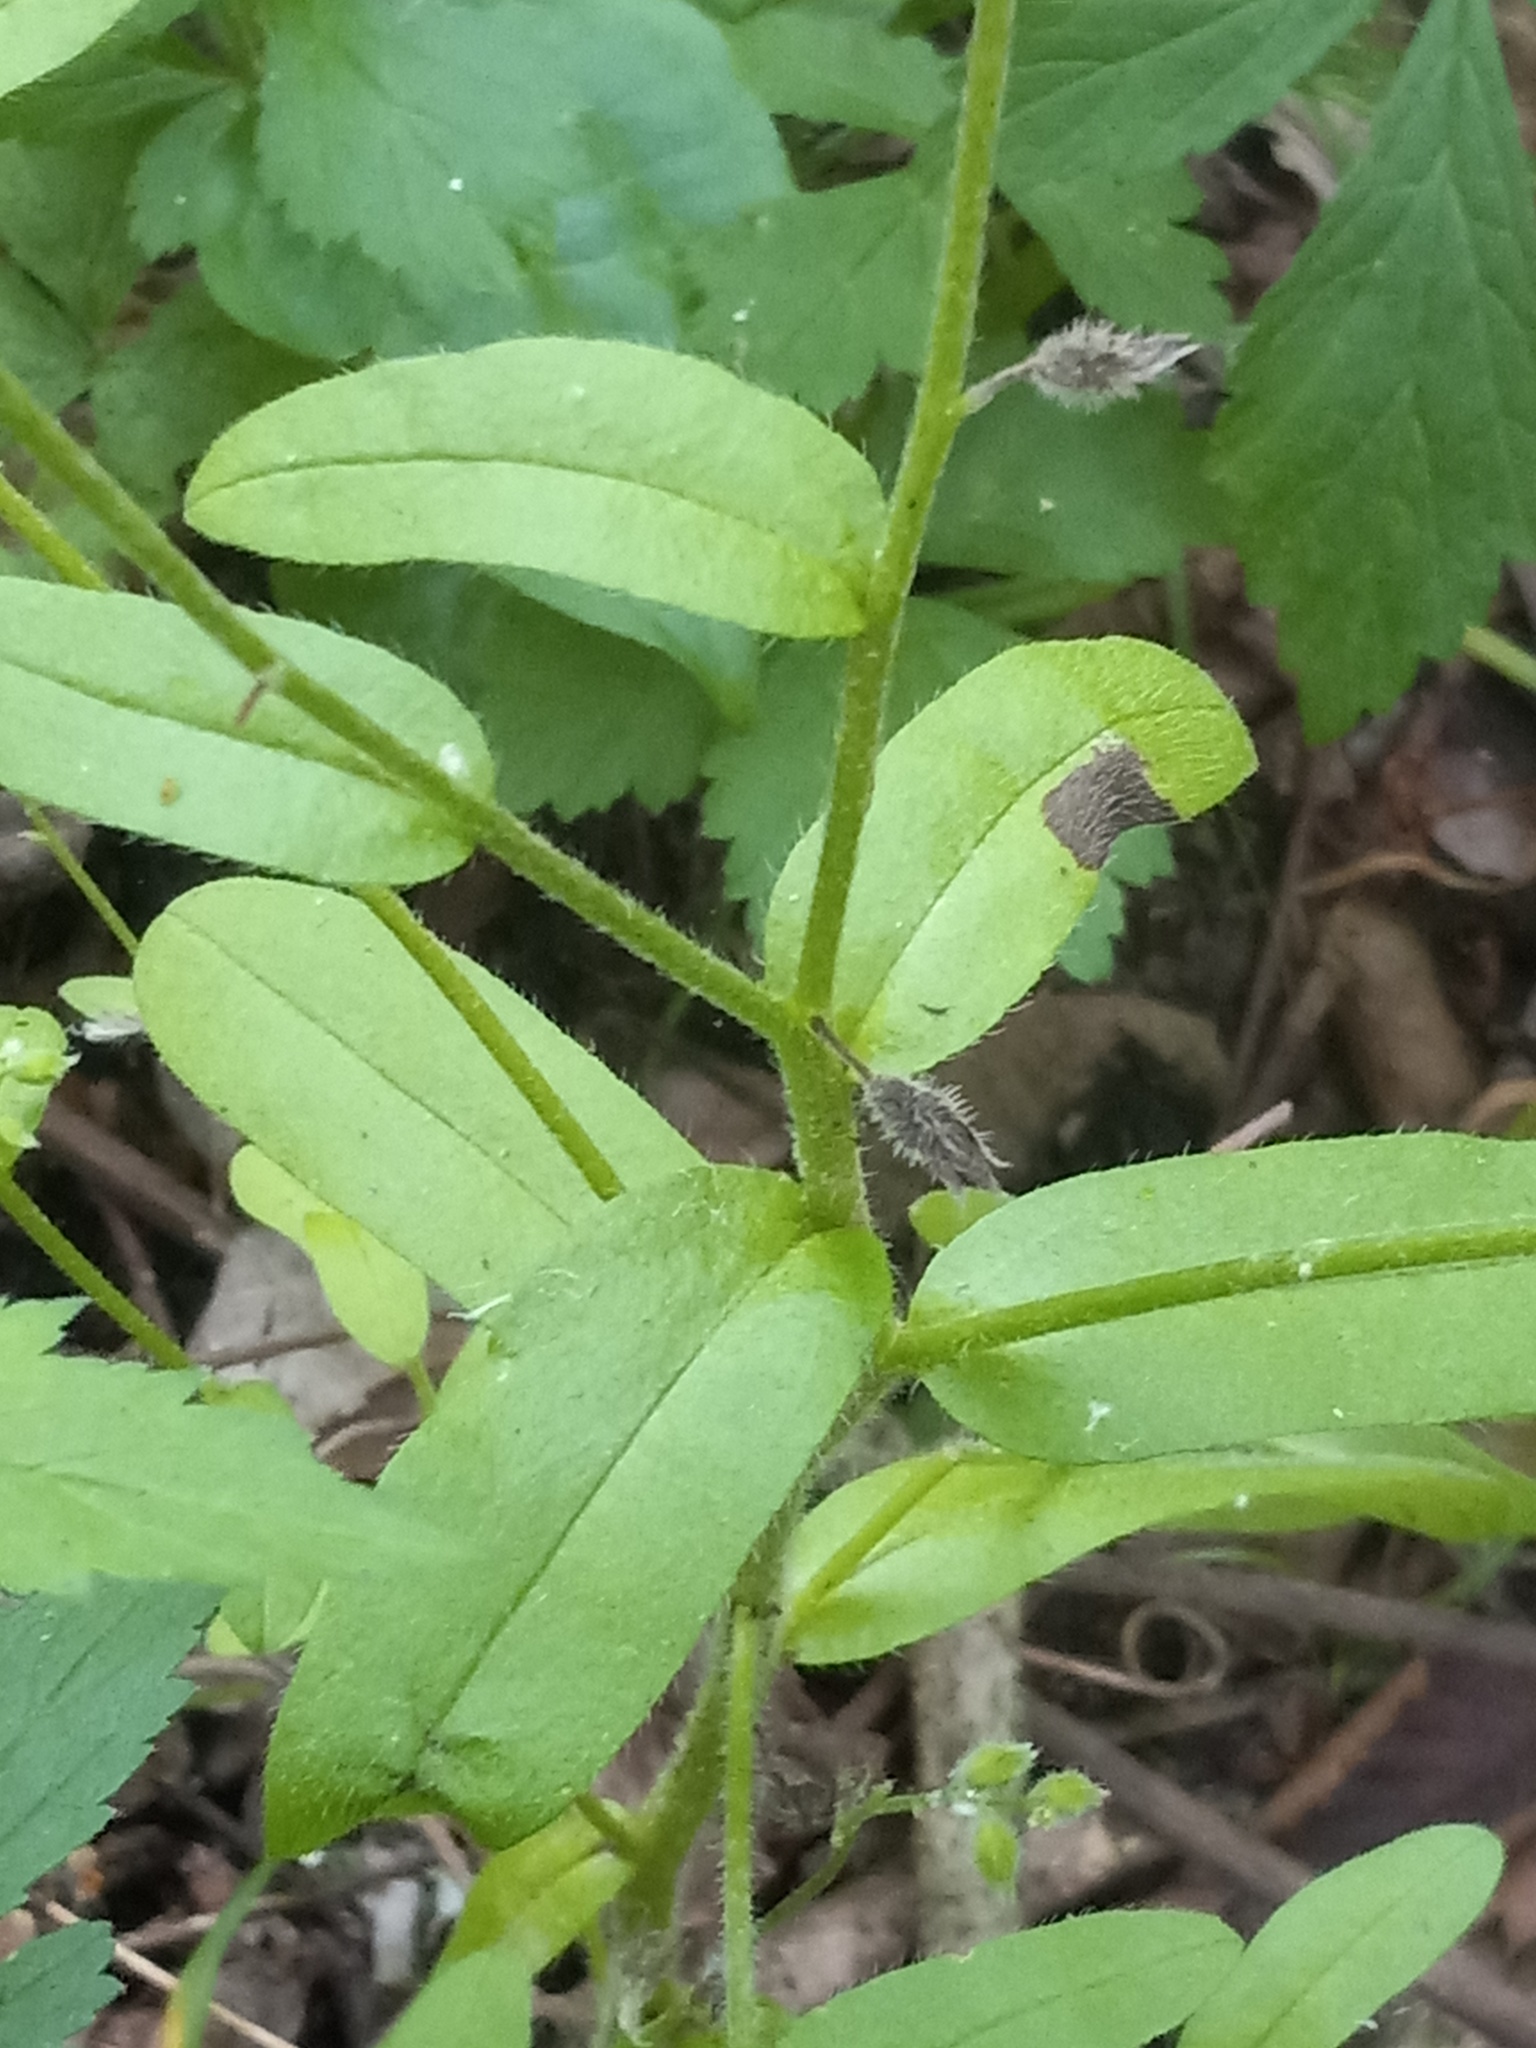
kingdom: Plantae
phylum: Tracheophyta
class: Magnoliopsida
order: Boraginales
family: Boraginaceae
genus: Myosotis
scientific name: Myosotis macrosperma
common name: Large-seed forget-me-not
